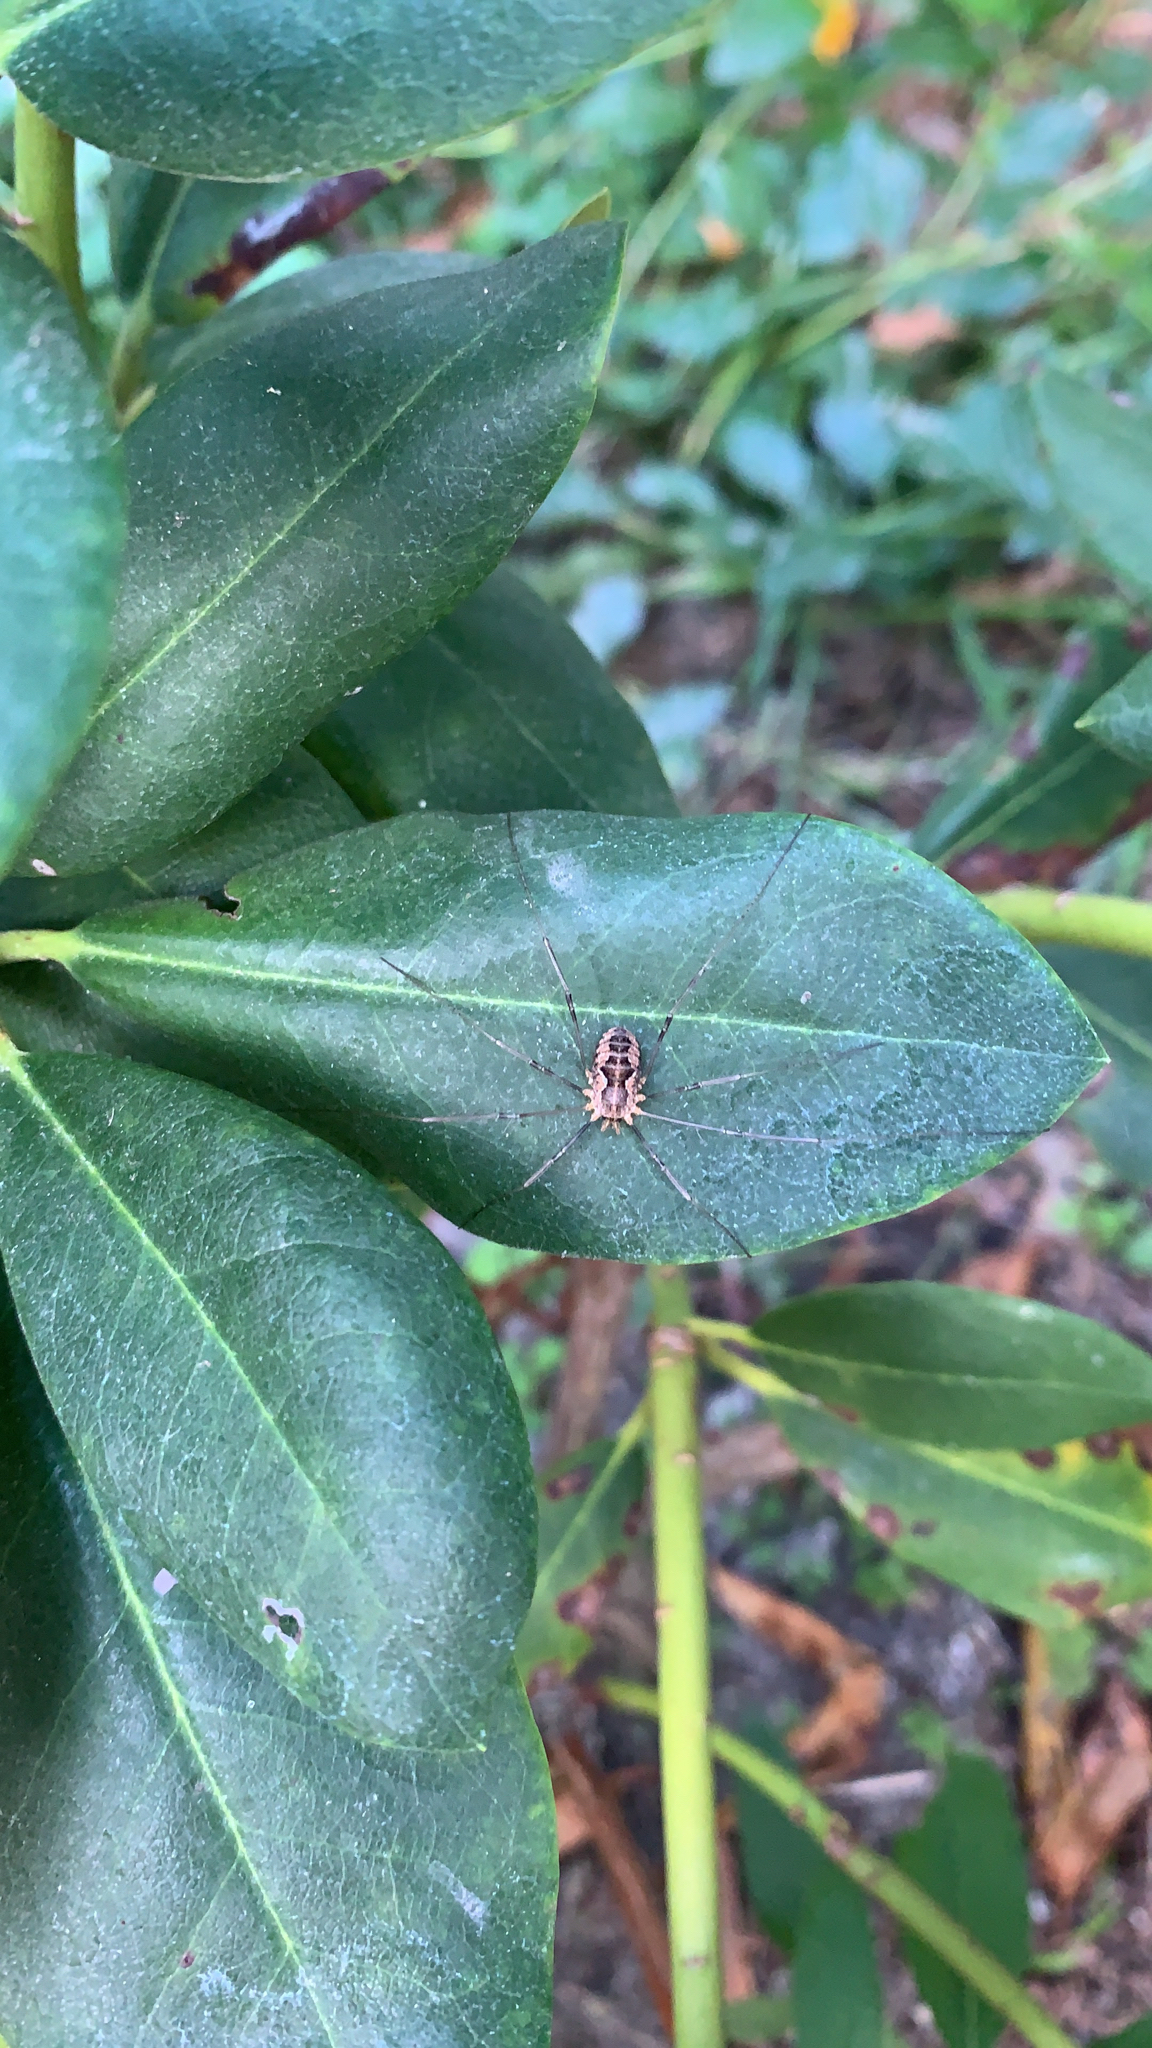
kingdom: Animalia
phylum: Arthropoda
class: Arachnida
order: Opiliones
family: Phalangiidae
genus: Phalangium
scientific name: Phalangium opilio
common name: Daddy longleg
